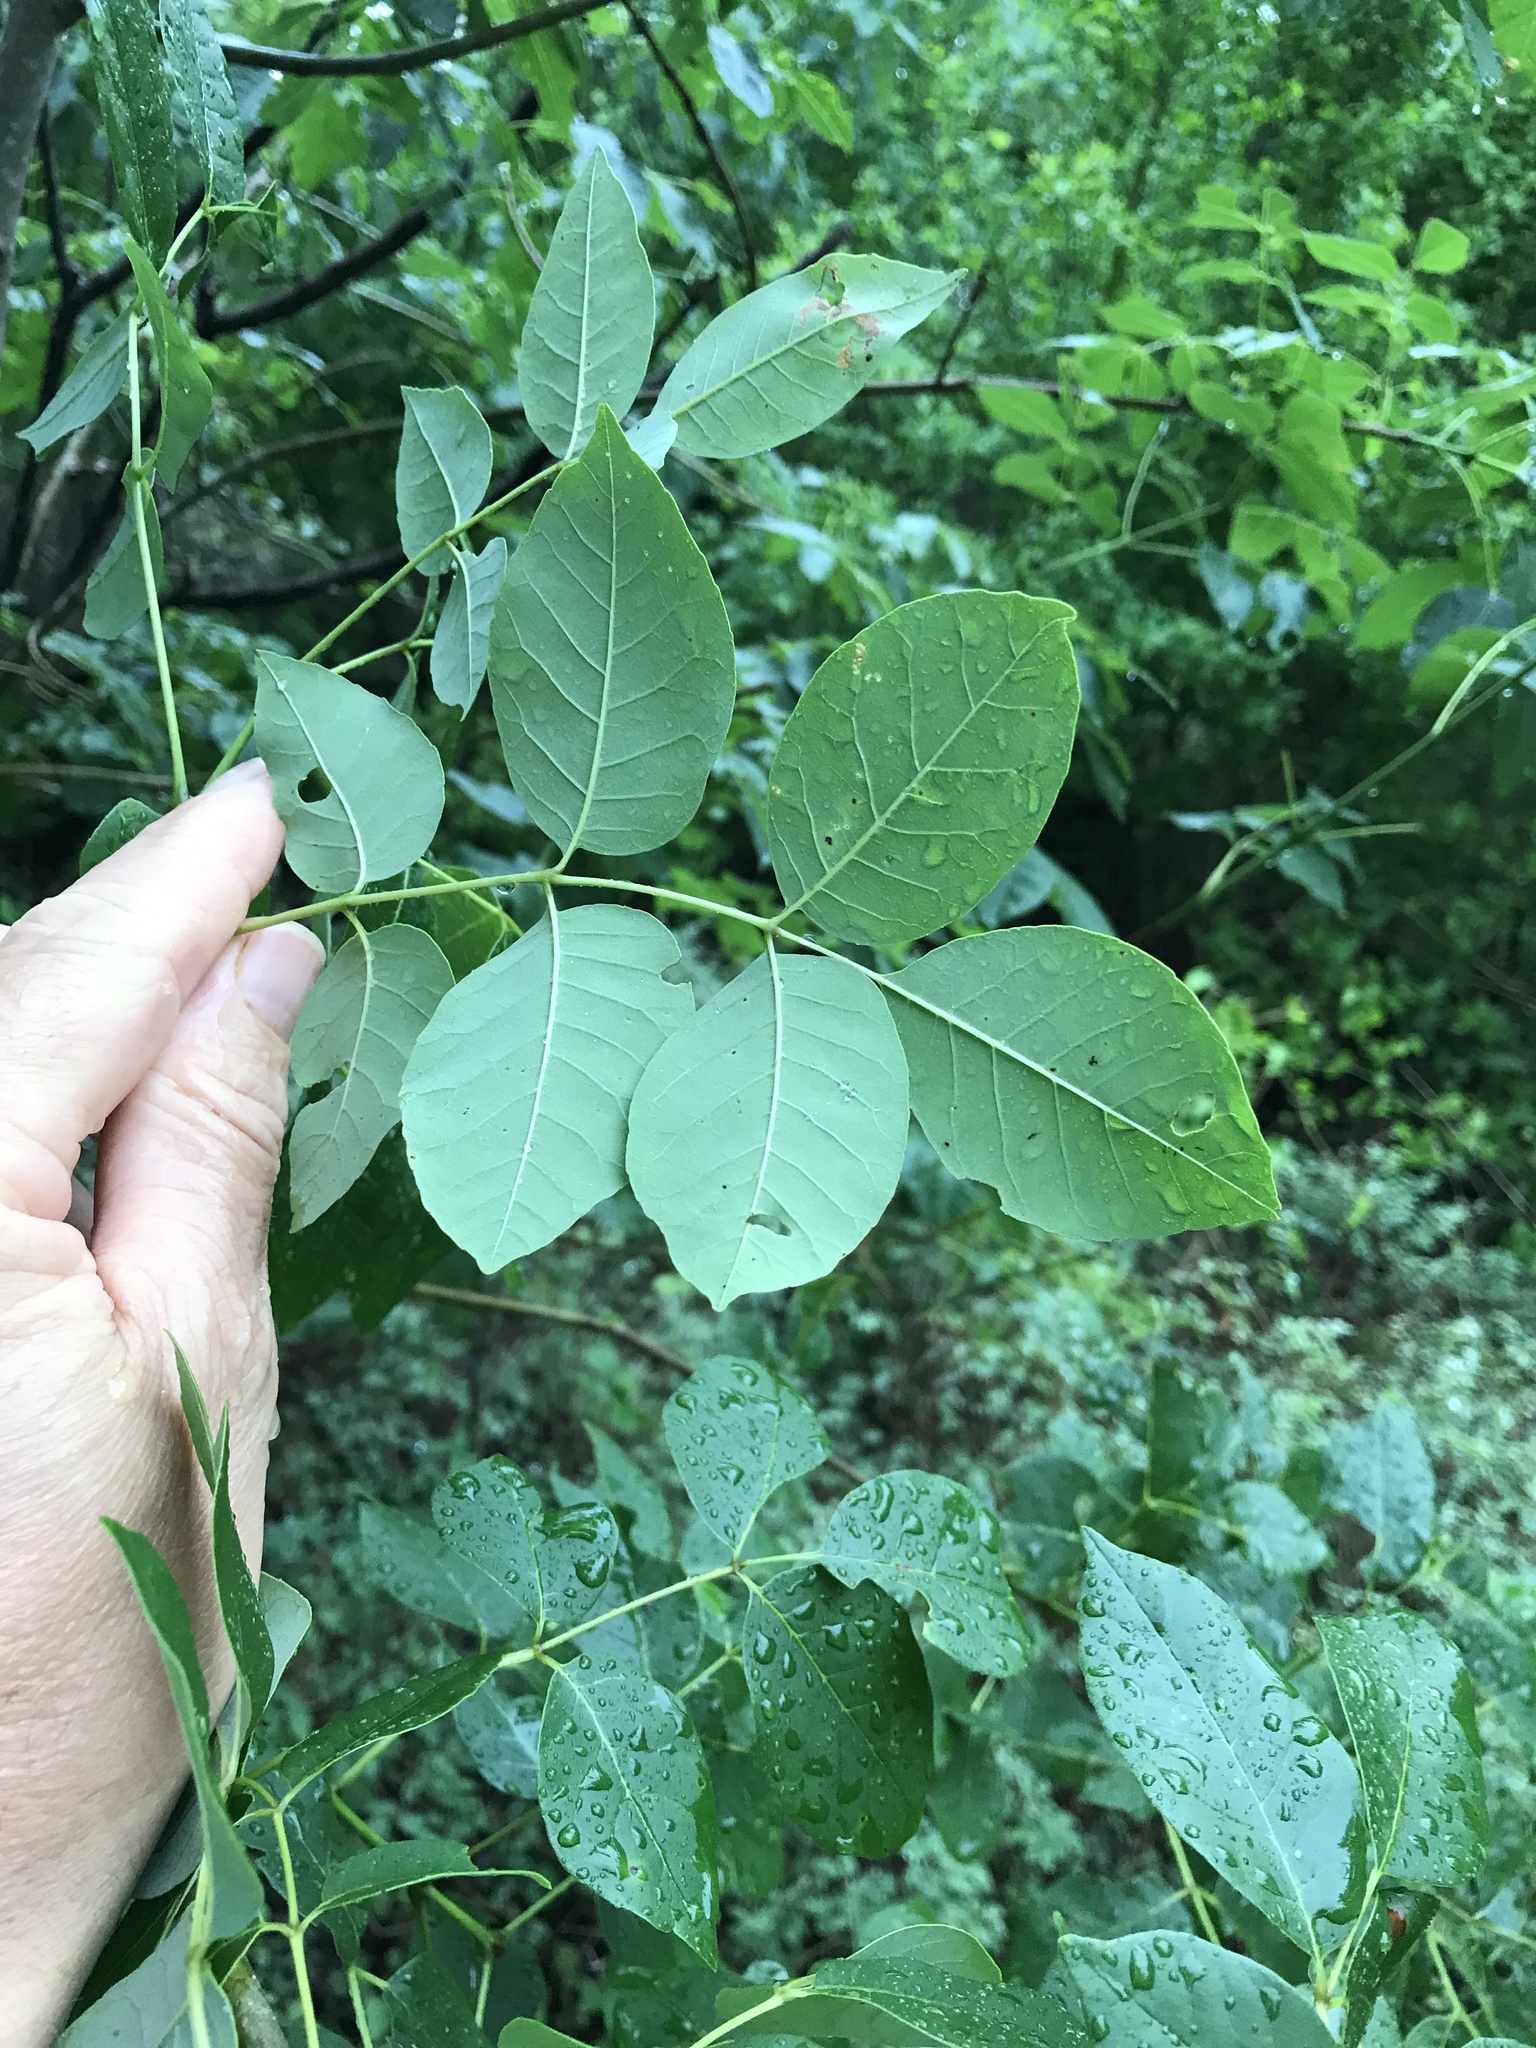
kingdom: Plantae
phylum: Tracheophyta
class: Magnoliopsida
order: Lamiales
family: Oleaceae
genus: Fraxinus
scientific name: Fraxinus albicans
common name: Texas ash
